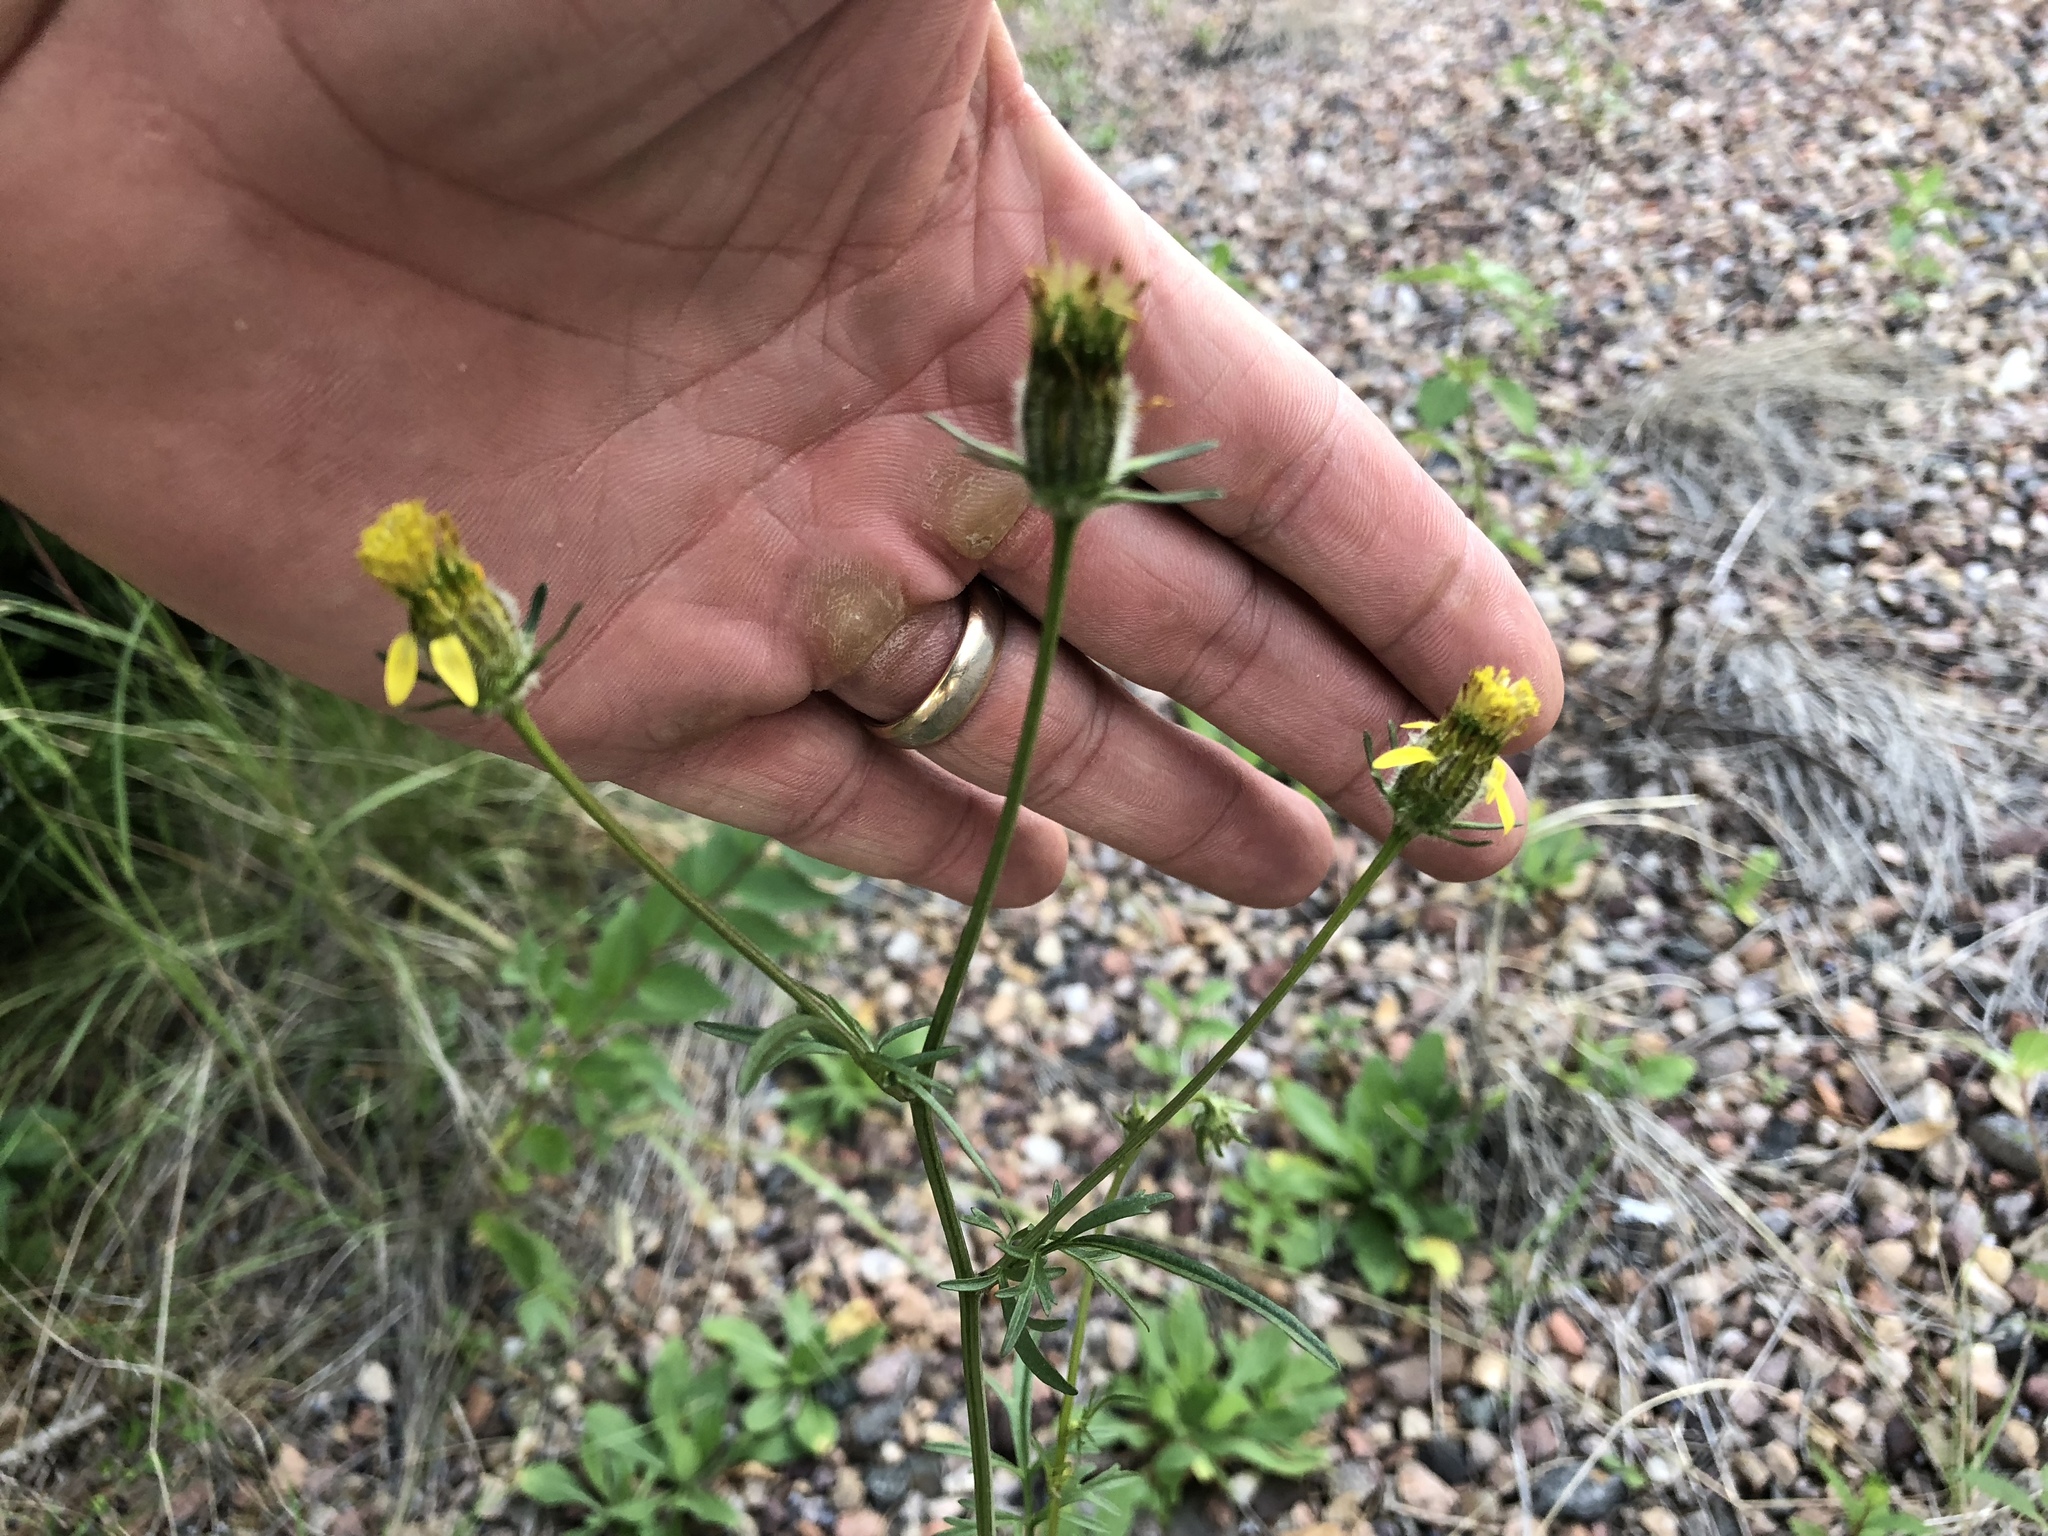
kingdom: Plantae
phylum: Tracheophyta
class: Magnoliopsida
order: Asterales
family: Asteraceae
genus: Bidens
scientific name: Bidens tenuisecta
